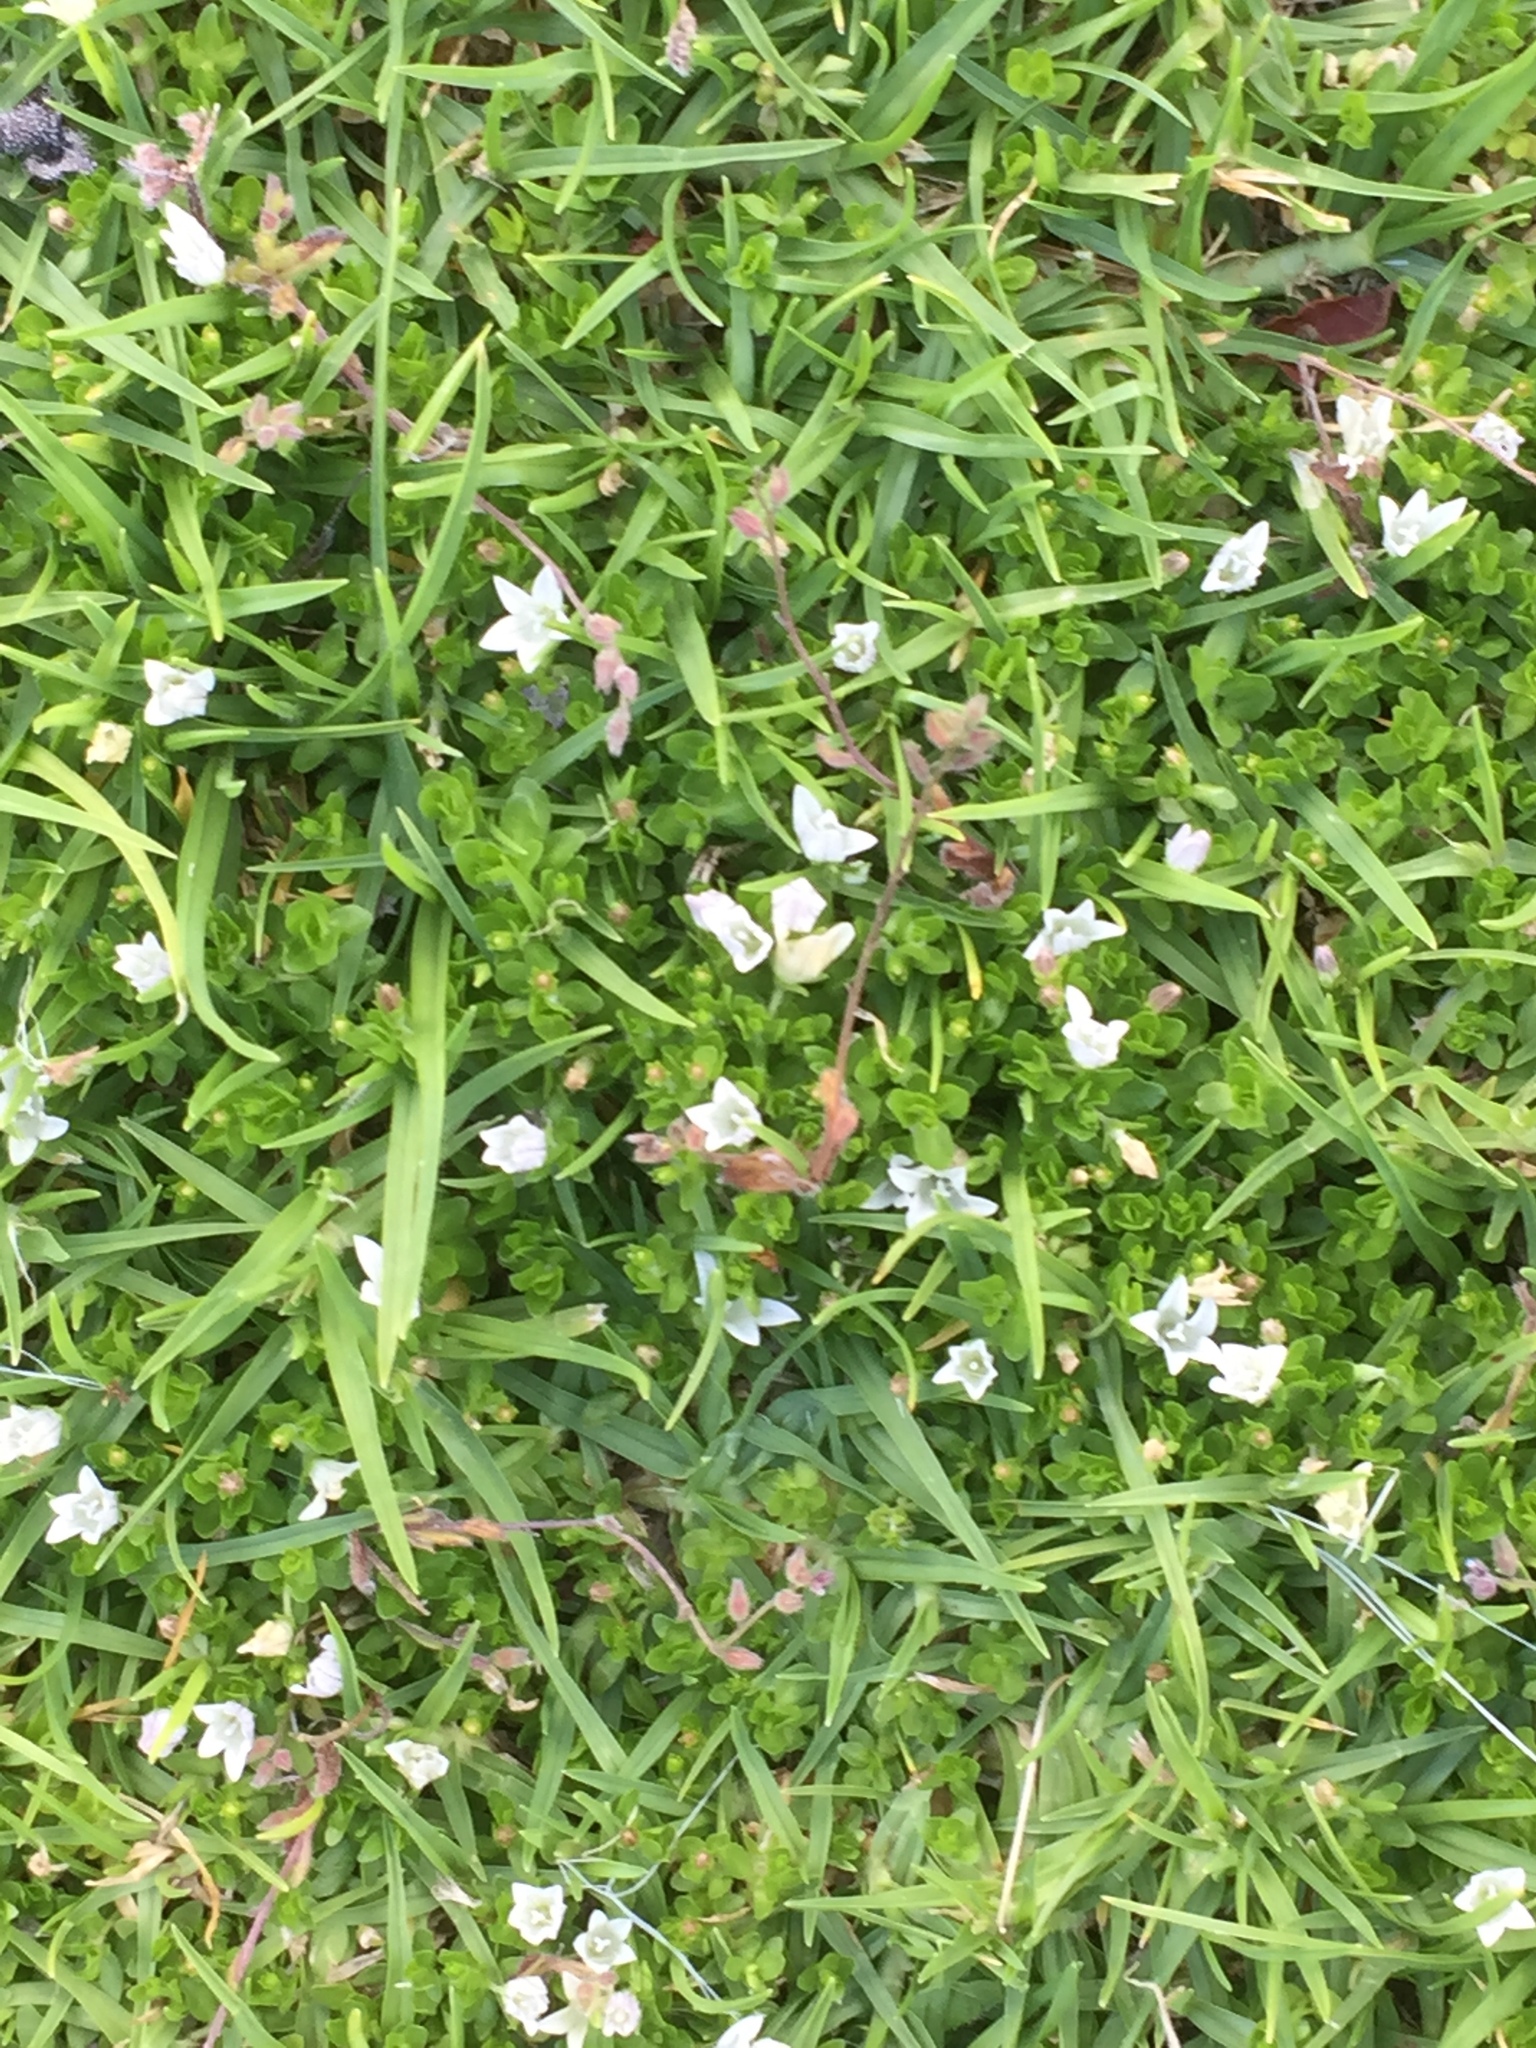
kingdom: Plantae
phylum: Tracheophyta
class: Magnoliopsida
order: Asterales
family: Campanulaceae
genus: Wahlenbergia
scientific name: Wahlenbergia procumbens
